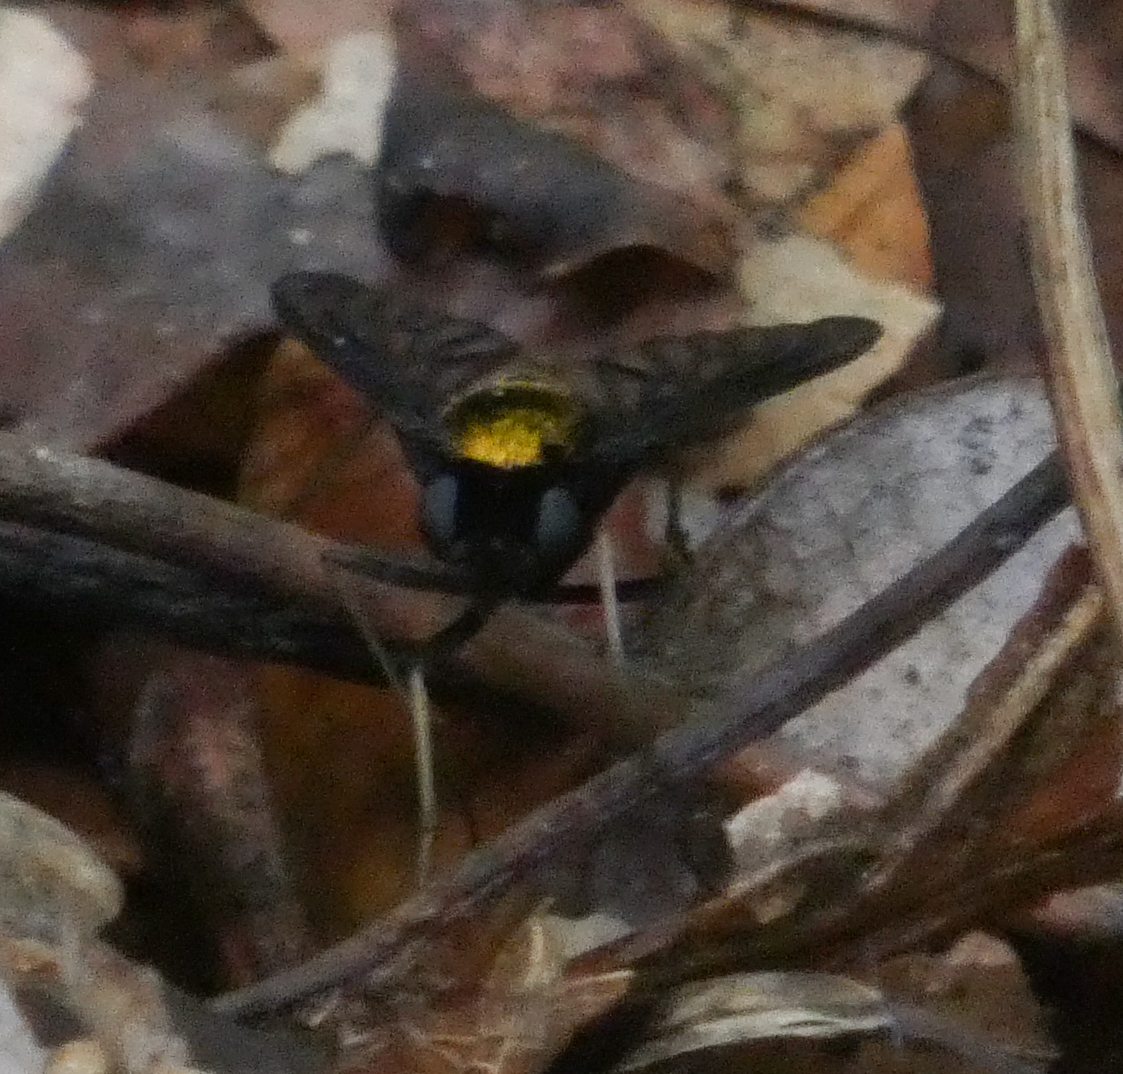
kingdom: Animalia
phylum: Arthropoda
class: Insecta
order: Diptera
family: Rhagionidae
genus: Chrysopilus
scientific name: Chrysopilus thoracicus
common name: Golden-backed snipe fly
